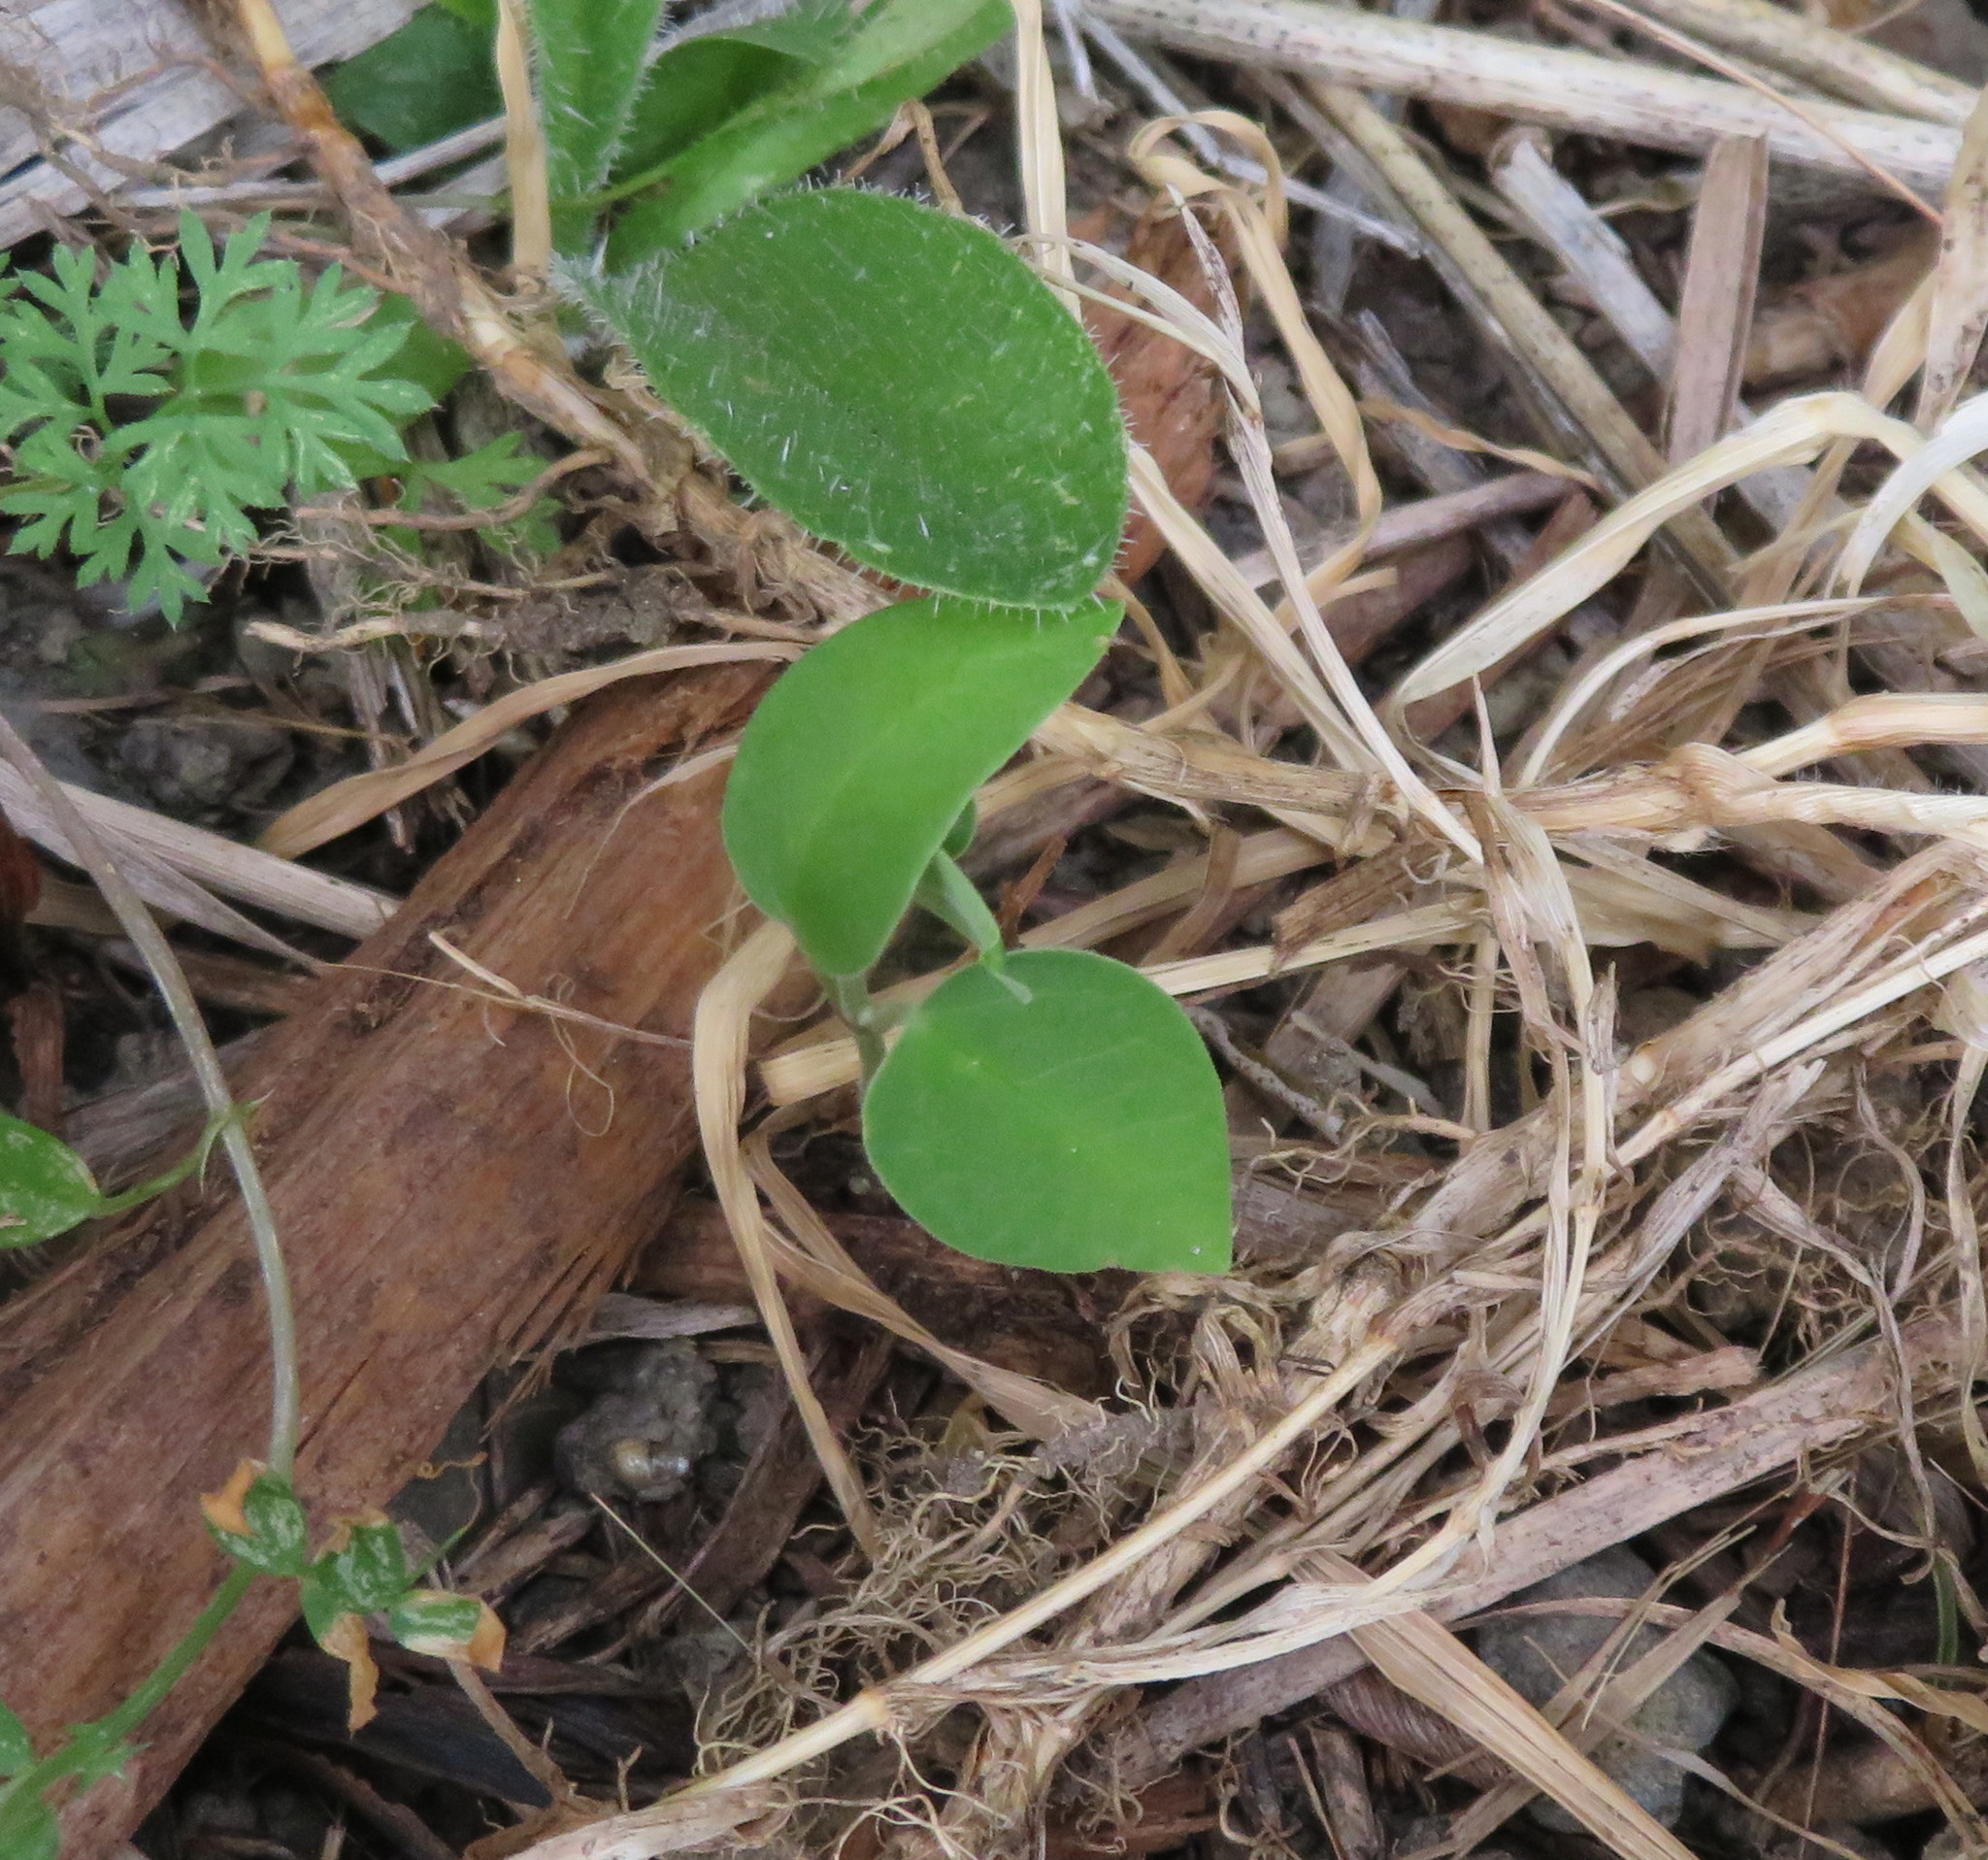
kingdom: Plantae
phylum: Tracheophyta
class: Magnoliopsida
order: Gentianales
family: Apocynaceae
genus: Araujia
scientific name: Araujia sericifera
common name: White bladderflower
